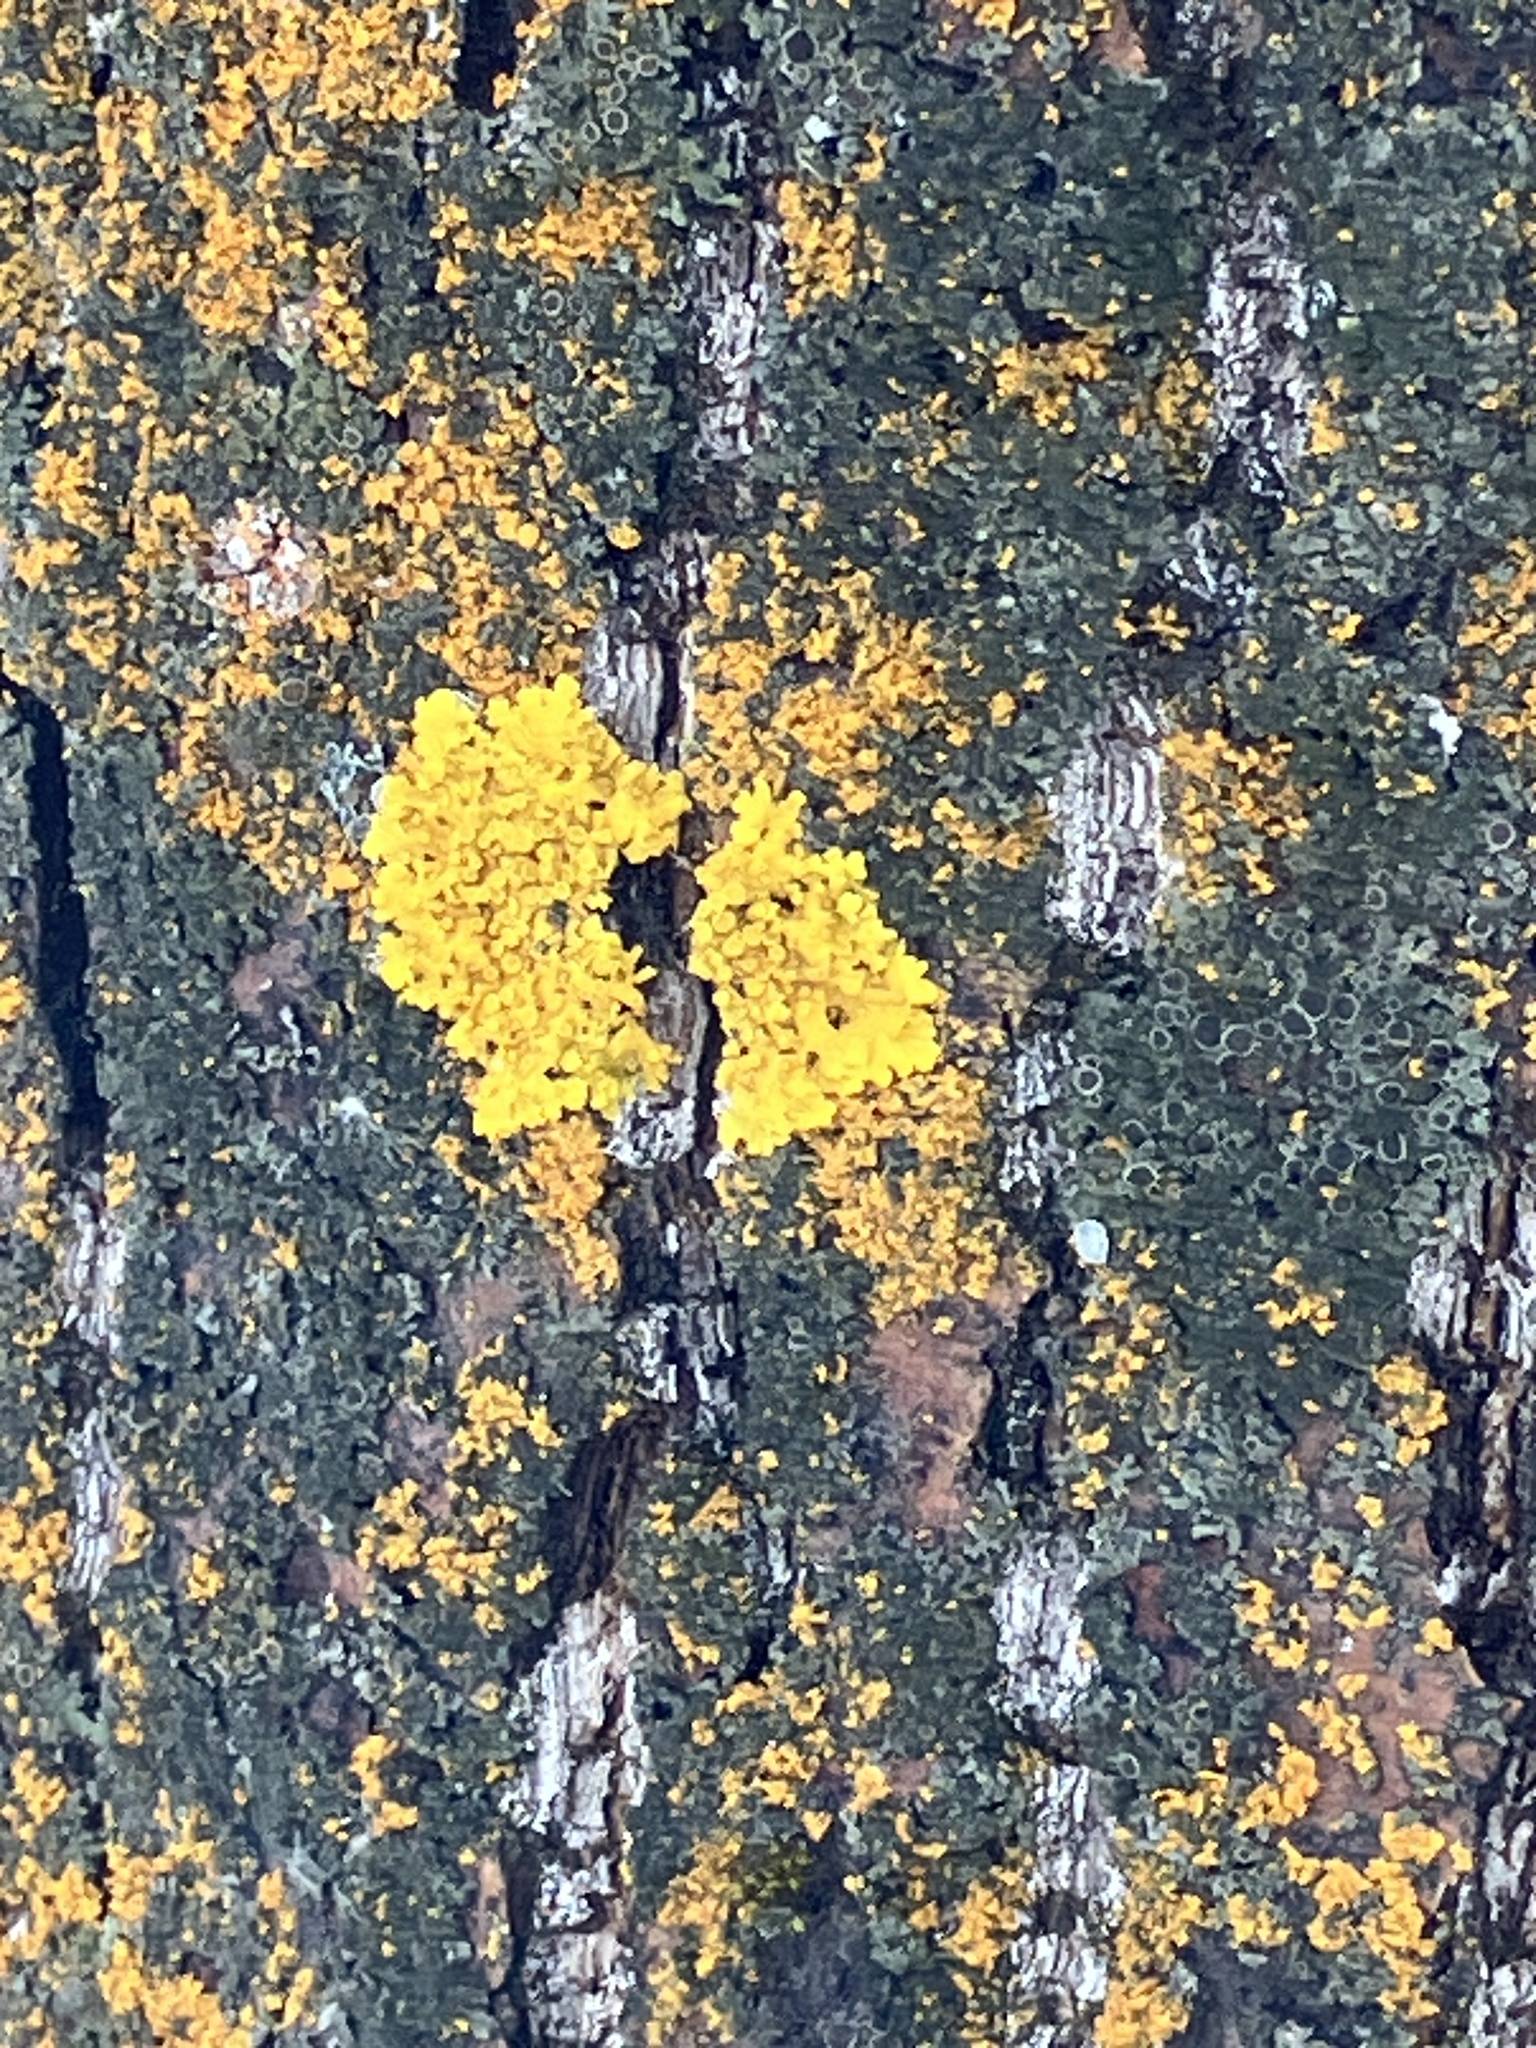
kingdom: Fungi
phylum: Ascomycota
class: Lecanoromycetes
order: Teloschistales
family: Teloschistaceae
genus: Xanthoria
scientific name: Xanthoria parietina
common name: Common orange lichen
